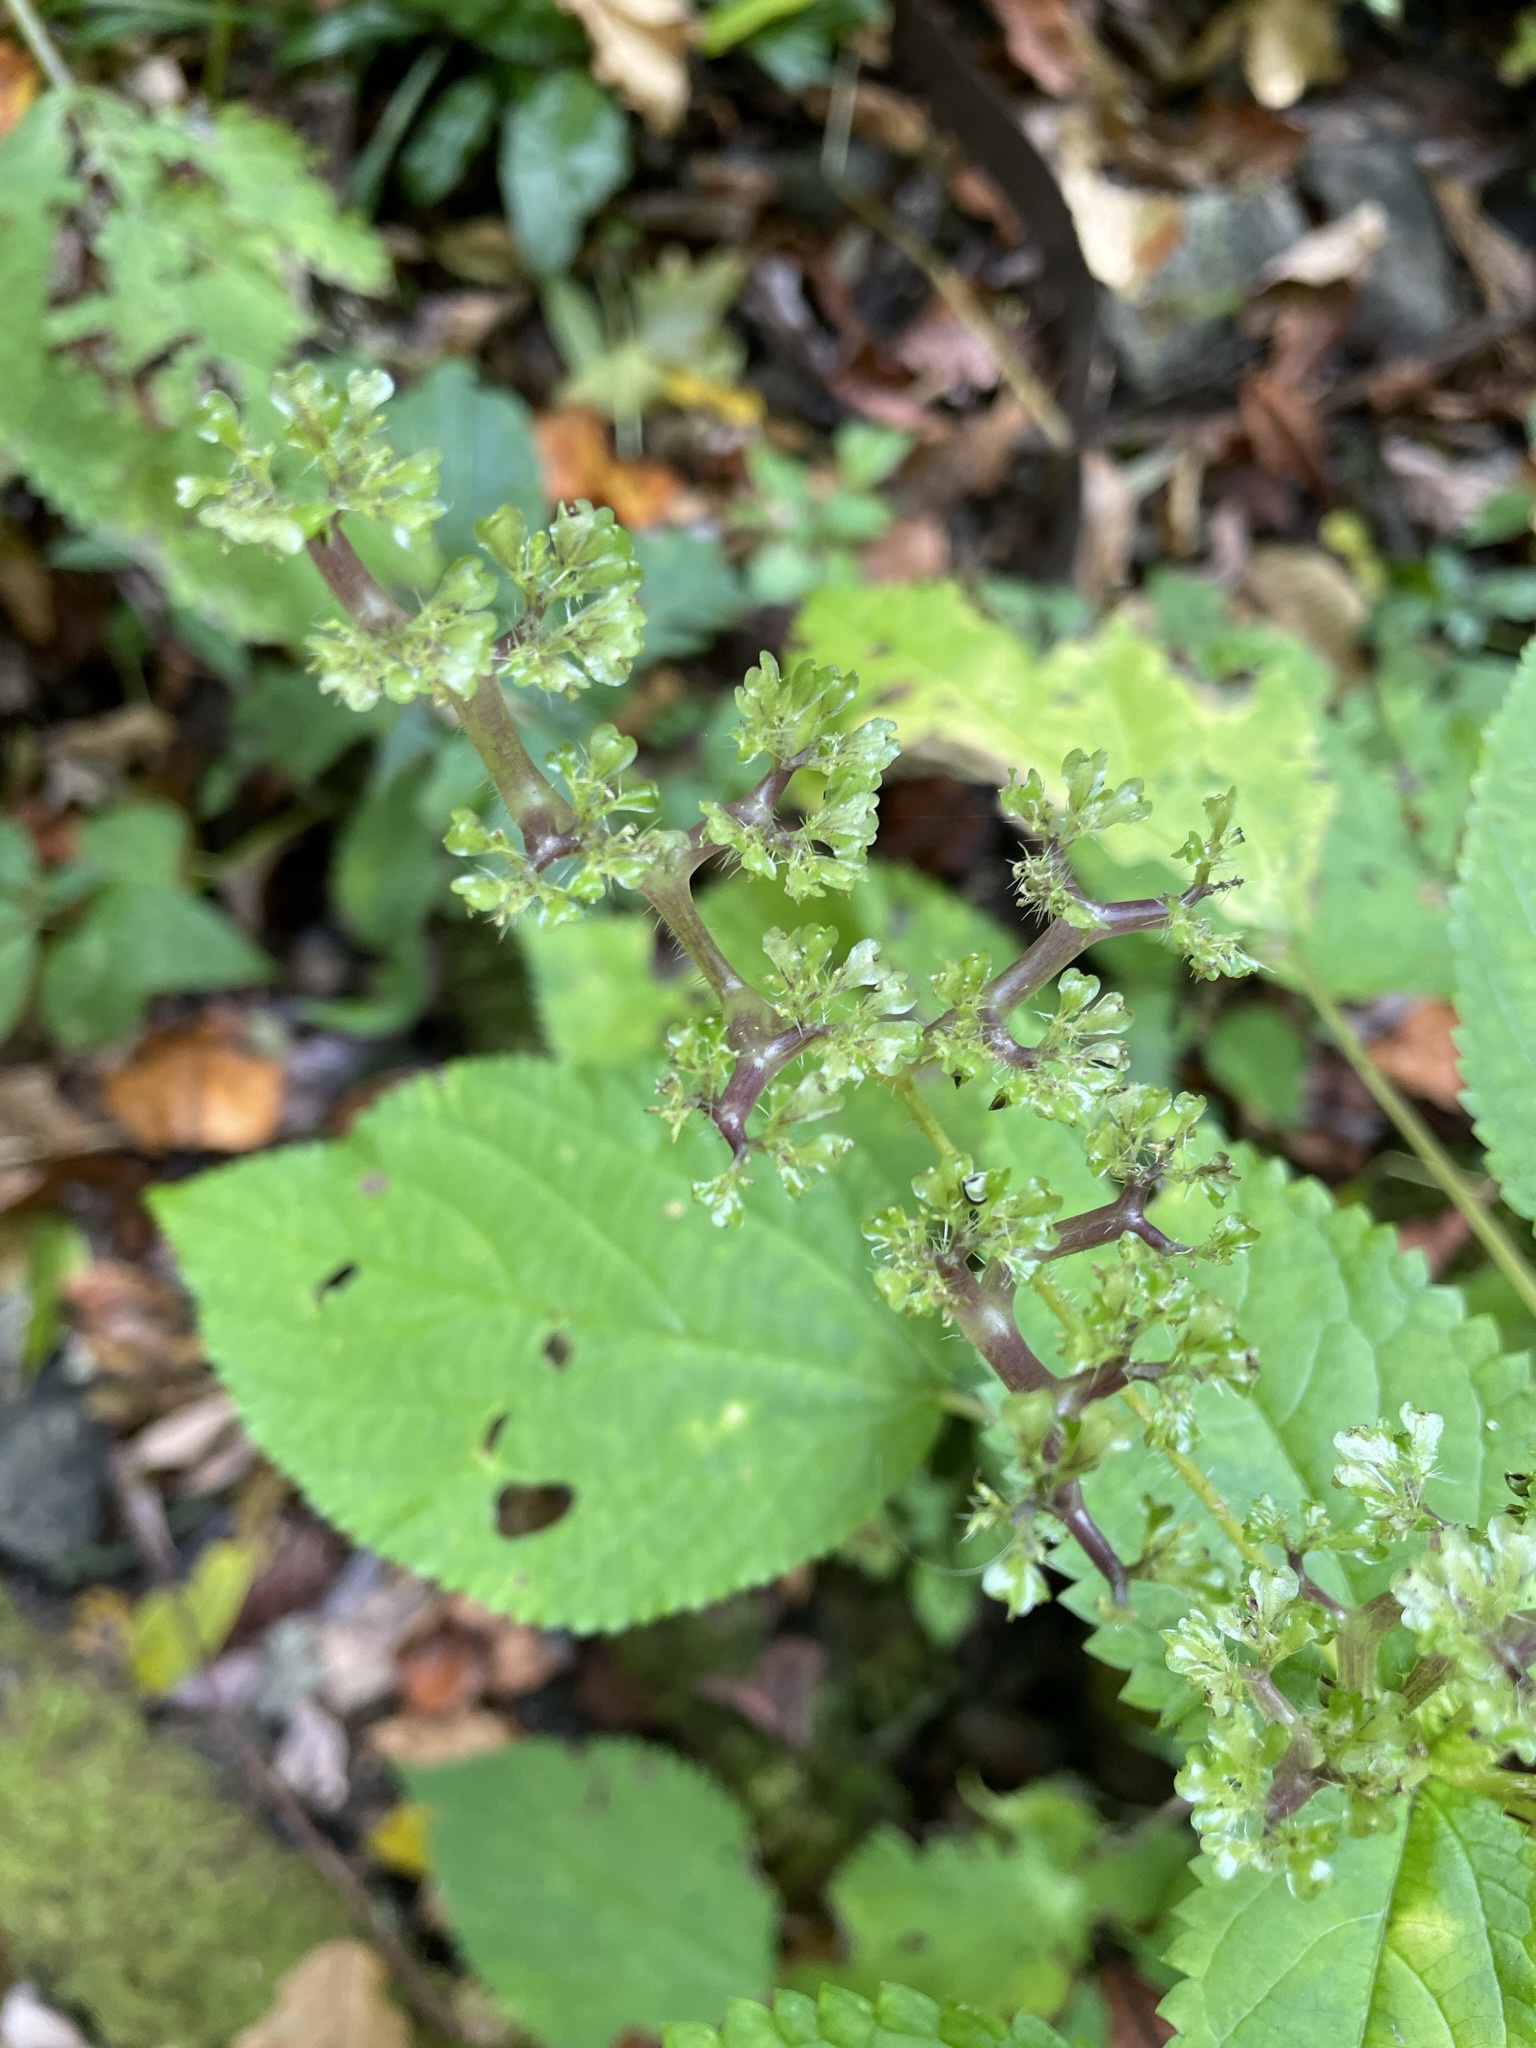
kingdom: Plantae
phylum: Tracheophyta
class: Magnoliopsida
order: Rosales
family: Urticaceae
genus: Laportea
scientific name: Laportea canadensis
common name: Canada nettle
